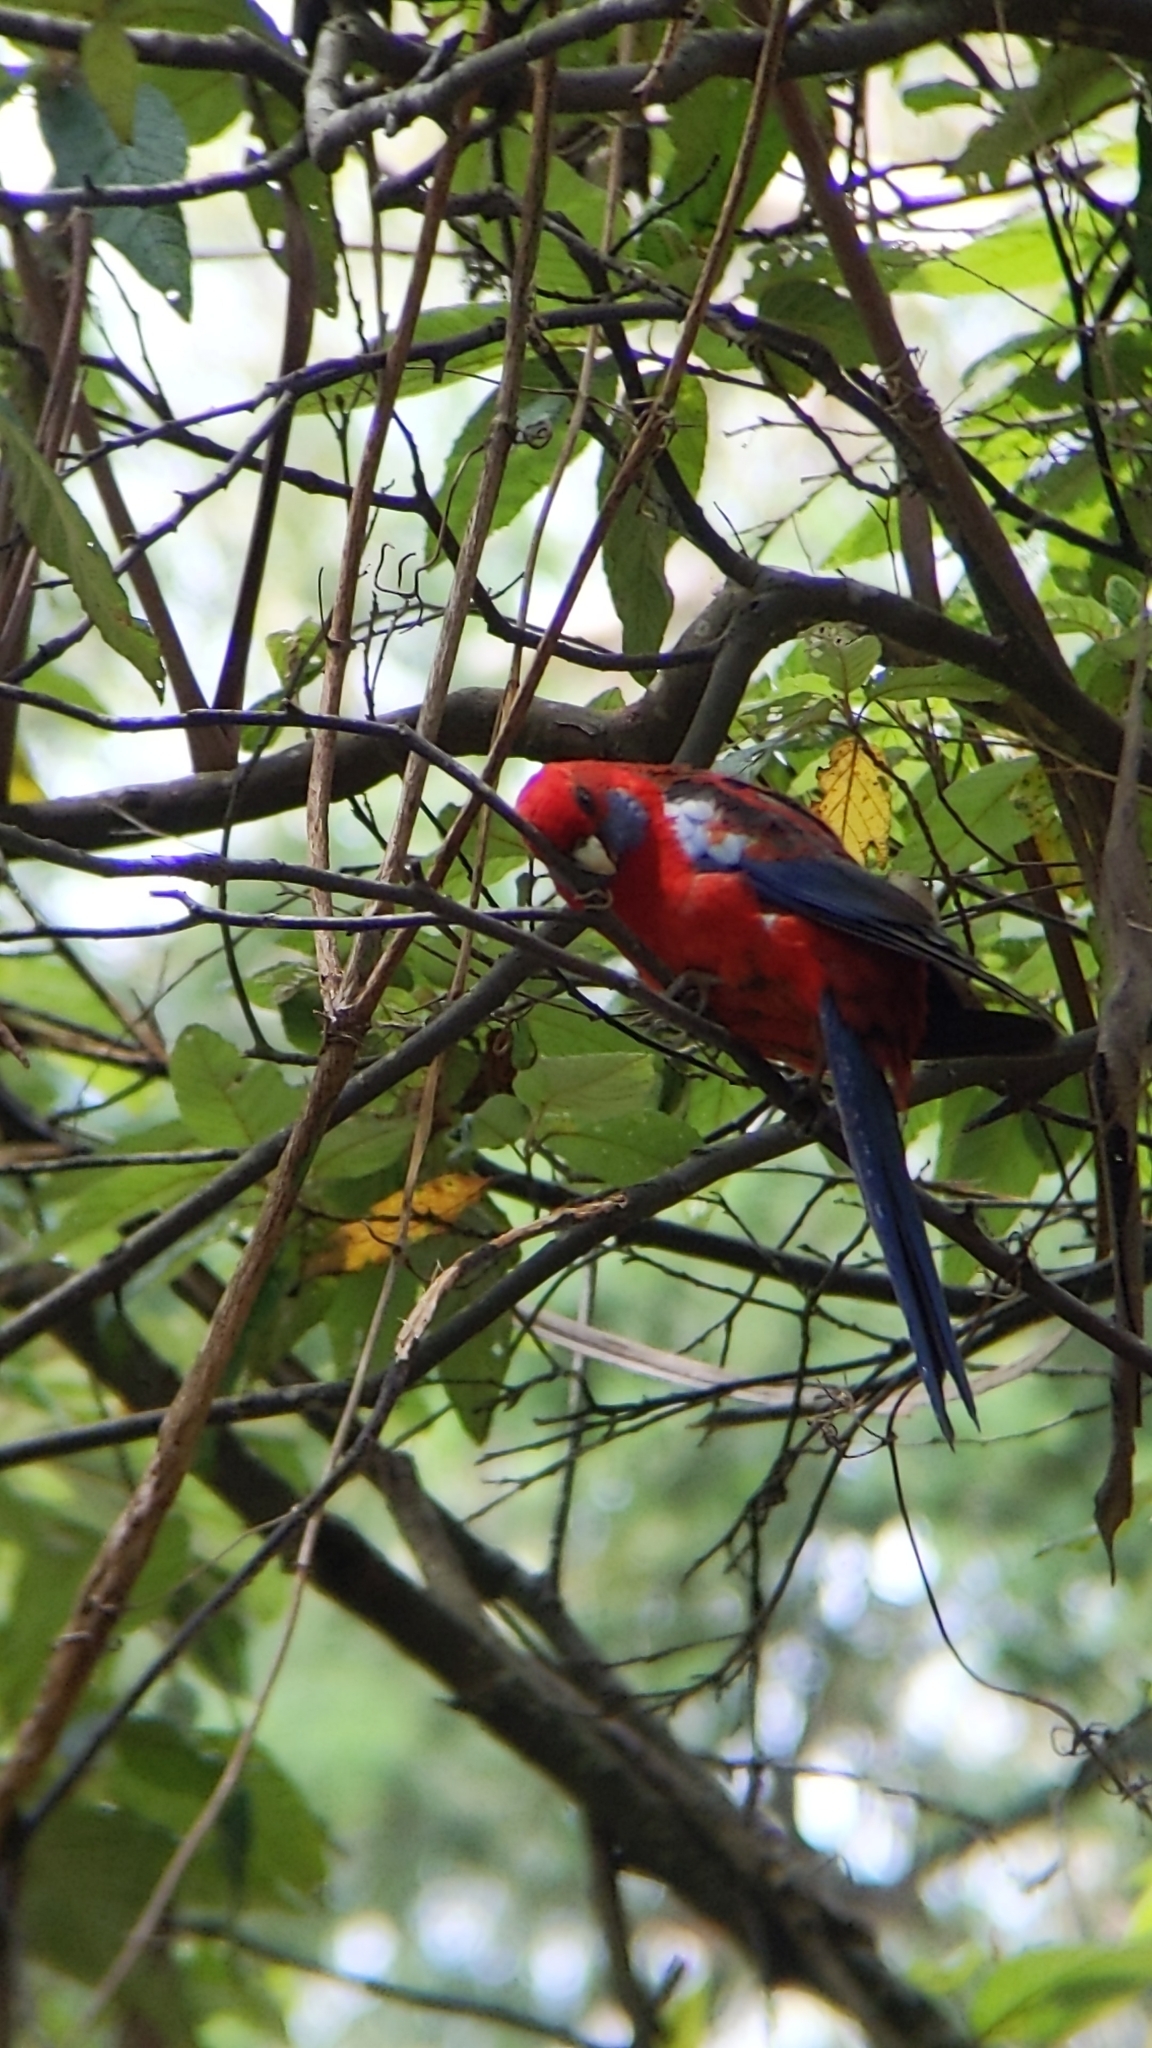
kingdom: Animalia
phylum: Chordata
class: Aves
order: Psittaciformes
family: Psittacidae
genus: Platycercus
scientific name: Platycercus elegans
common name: Crimson rosella
